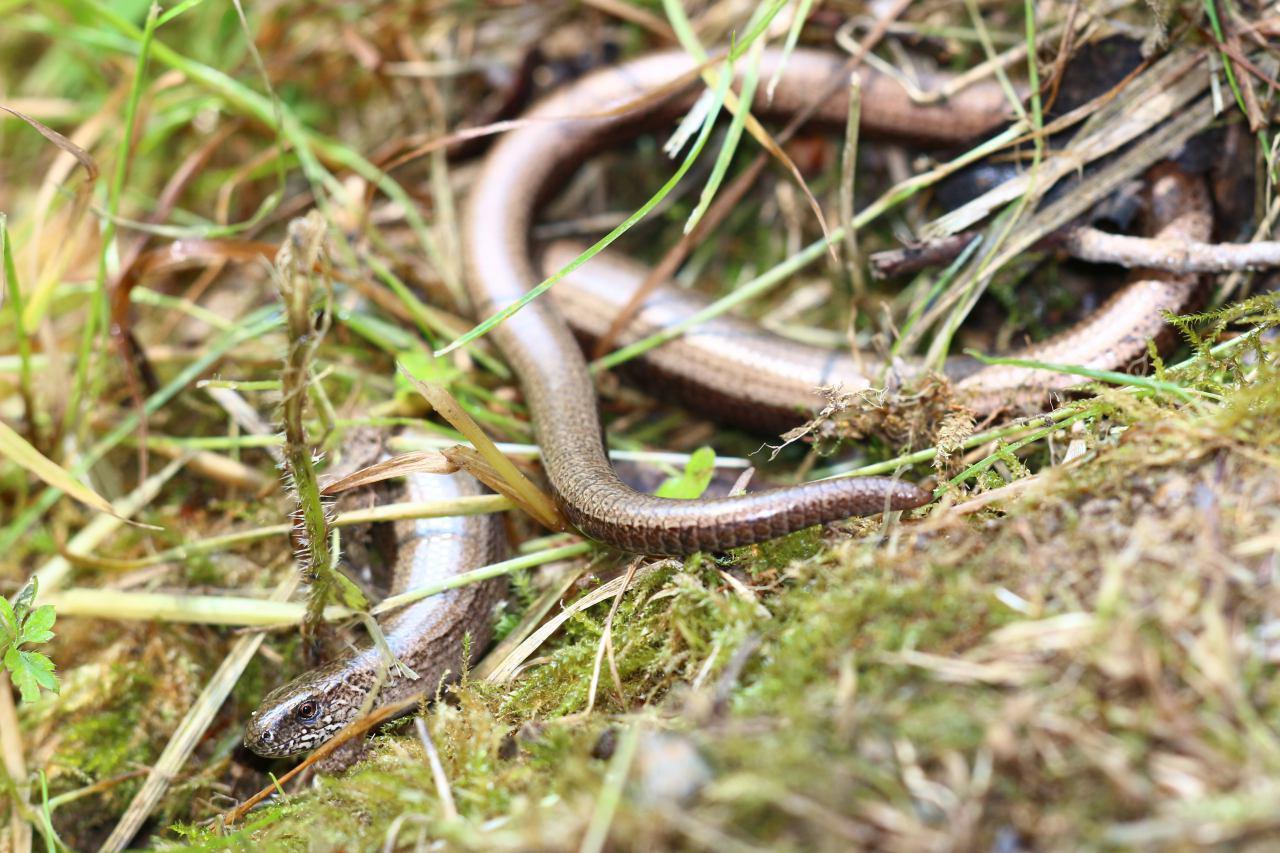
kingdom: Animalia
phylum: Chordata
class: Squamata
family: Anguidae
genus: Anguis
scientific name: Anguis fragilis
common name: Slow worm
